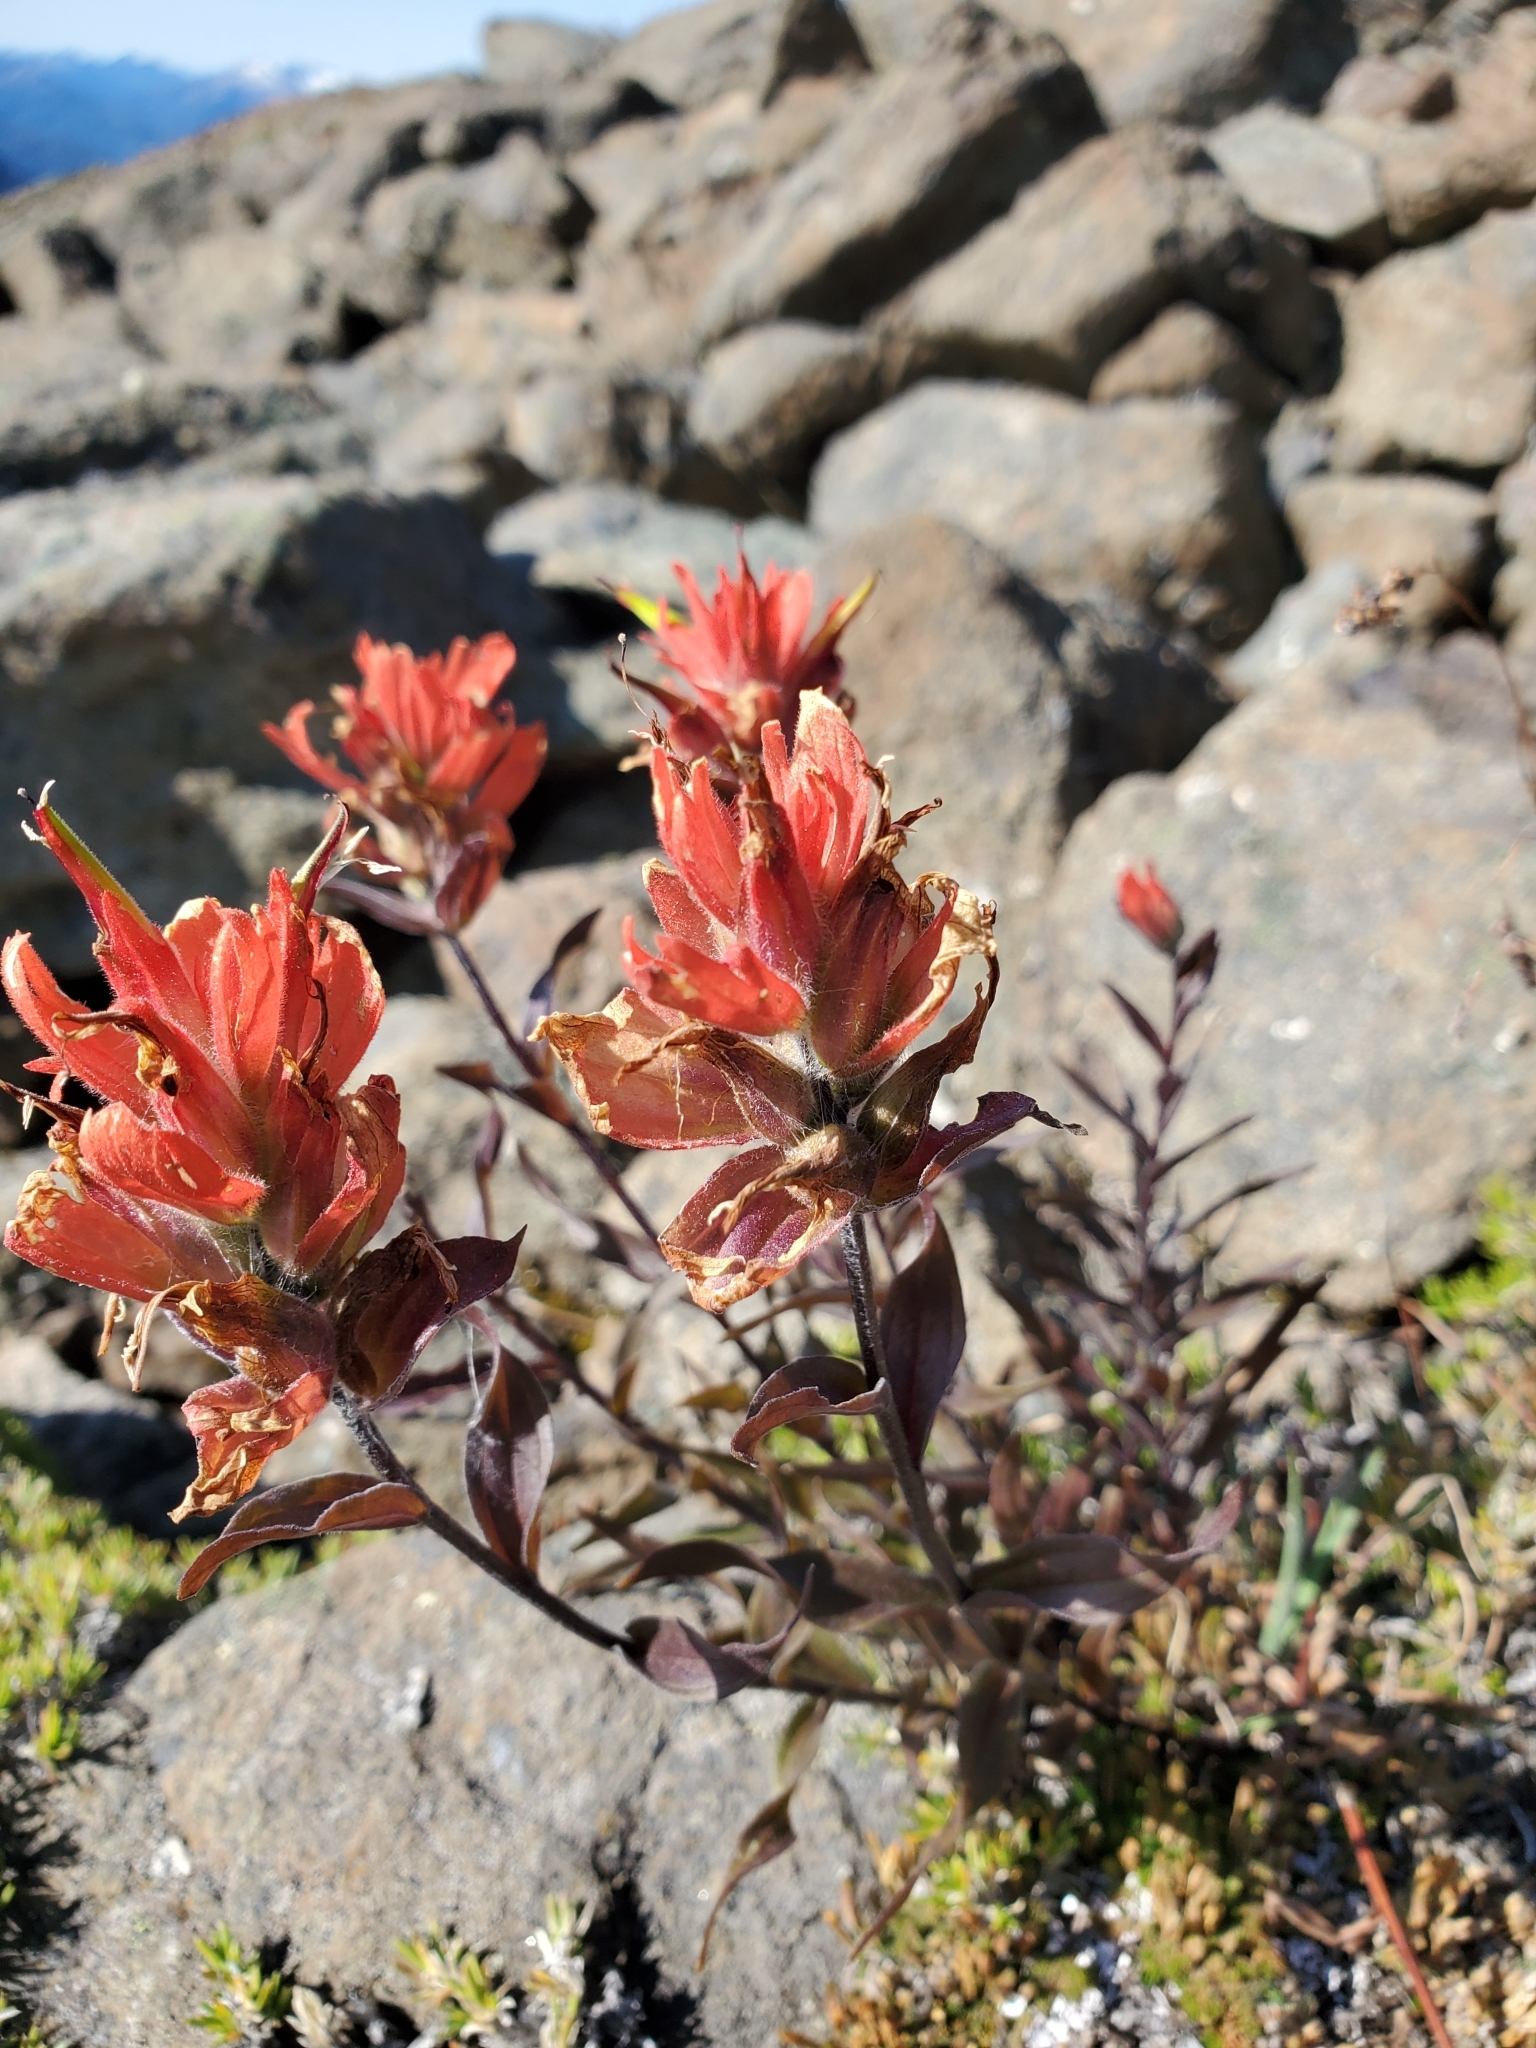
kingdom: Plantae
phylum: Tracheophyta
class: Magnoliopsida
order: Lamiales
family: Orobanchaceae
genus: Castilleja
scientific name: Castilleja miniata
